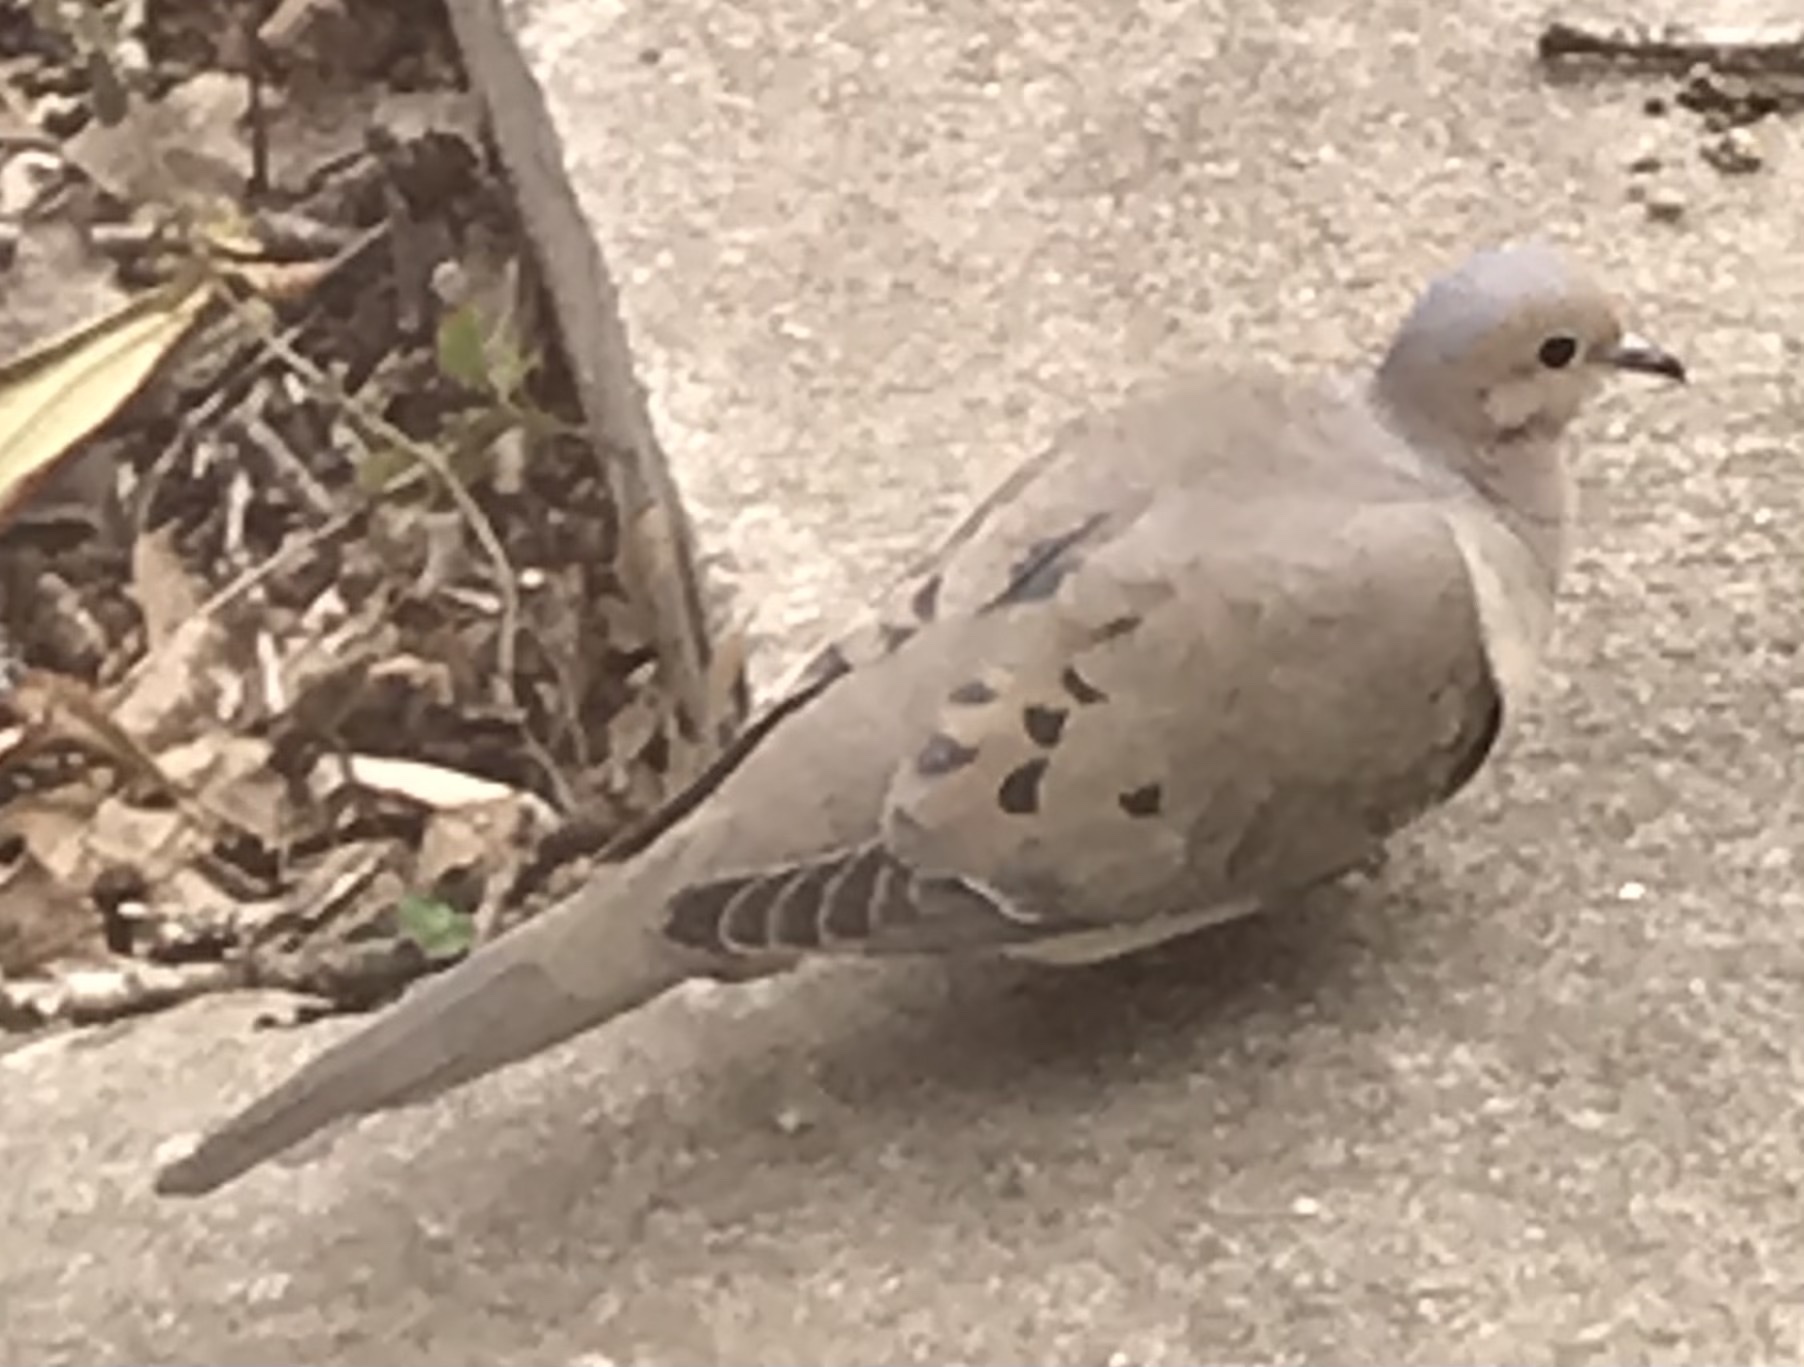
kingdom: Animalia
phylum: Chordata
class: Aves
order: Columbiformes
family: Columbidae
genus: Zenaida
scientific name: Zenaida macroura
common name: Mourning dove
